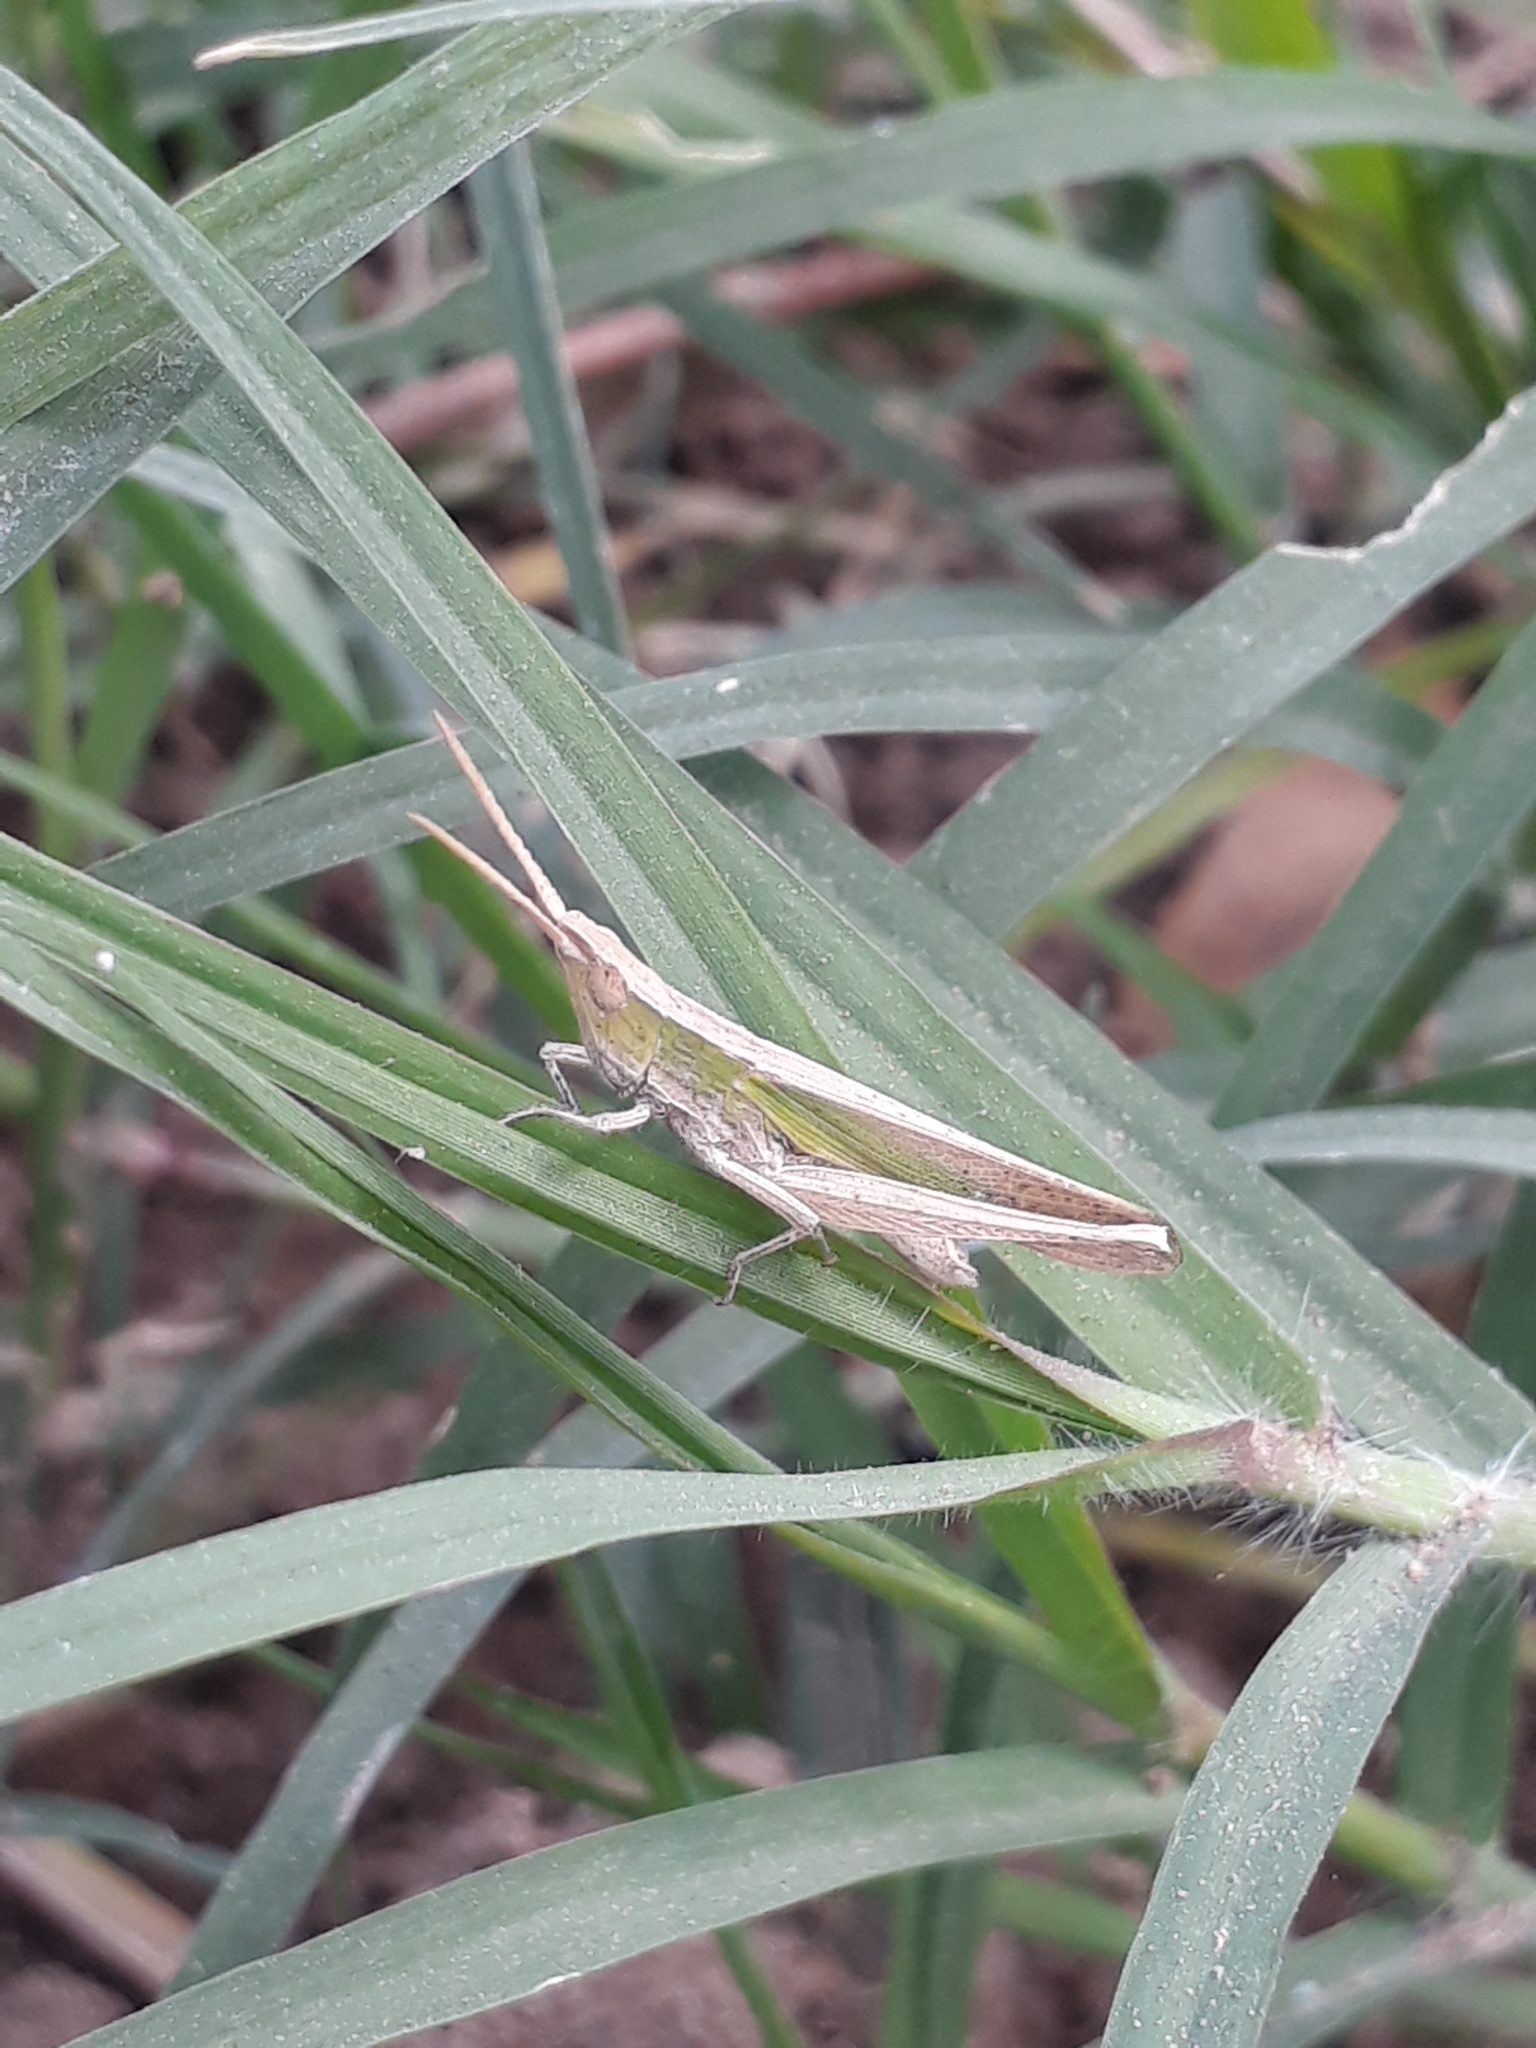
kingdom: Animalia
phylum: Arthropoda
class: Insecta
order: Orthoptera
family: Acrididae
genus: Allotruxalis
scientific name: Allotruxalis gracilis
